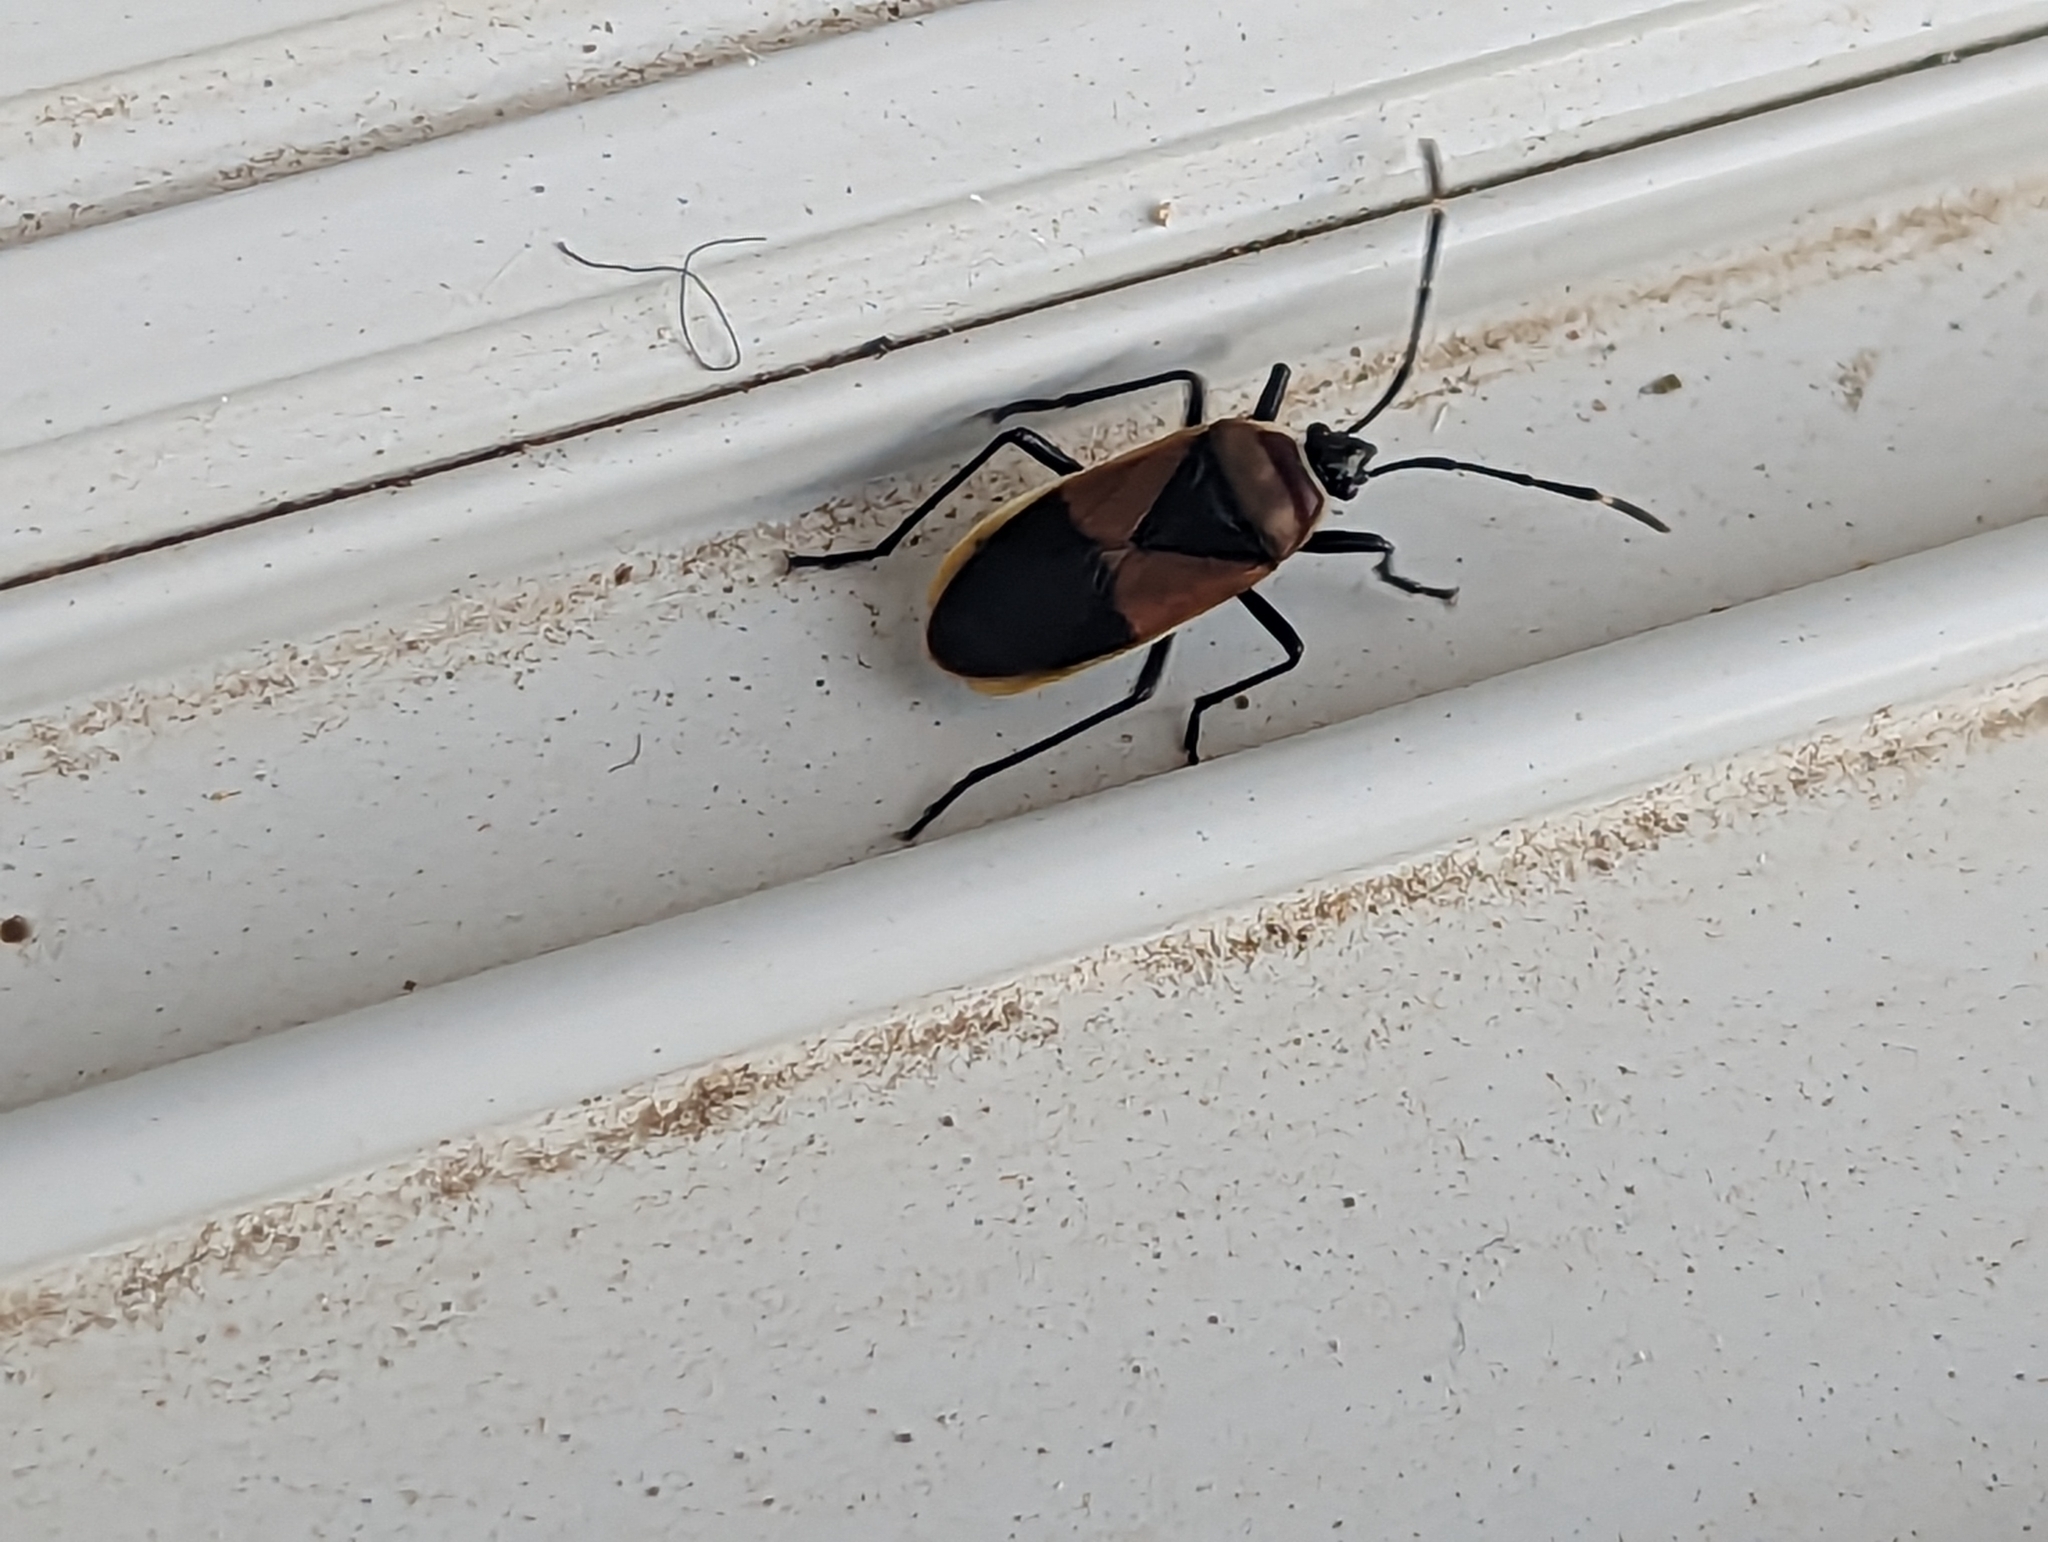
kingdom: Animalia
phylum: Arthropoda
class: Insecta
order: Hemiptera
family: Pyrrhocoridae
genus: Dindymus
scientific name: Dindymus
